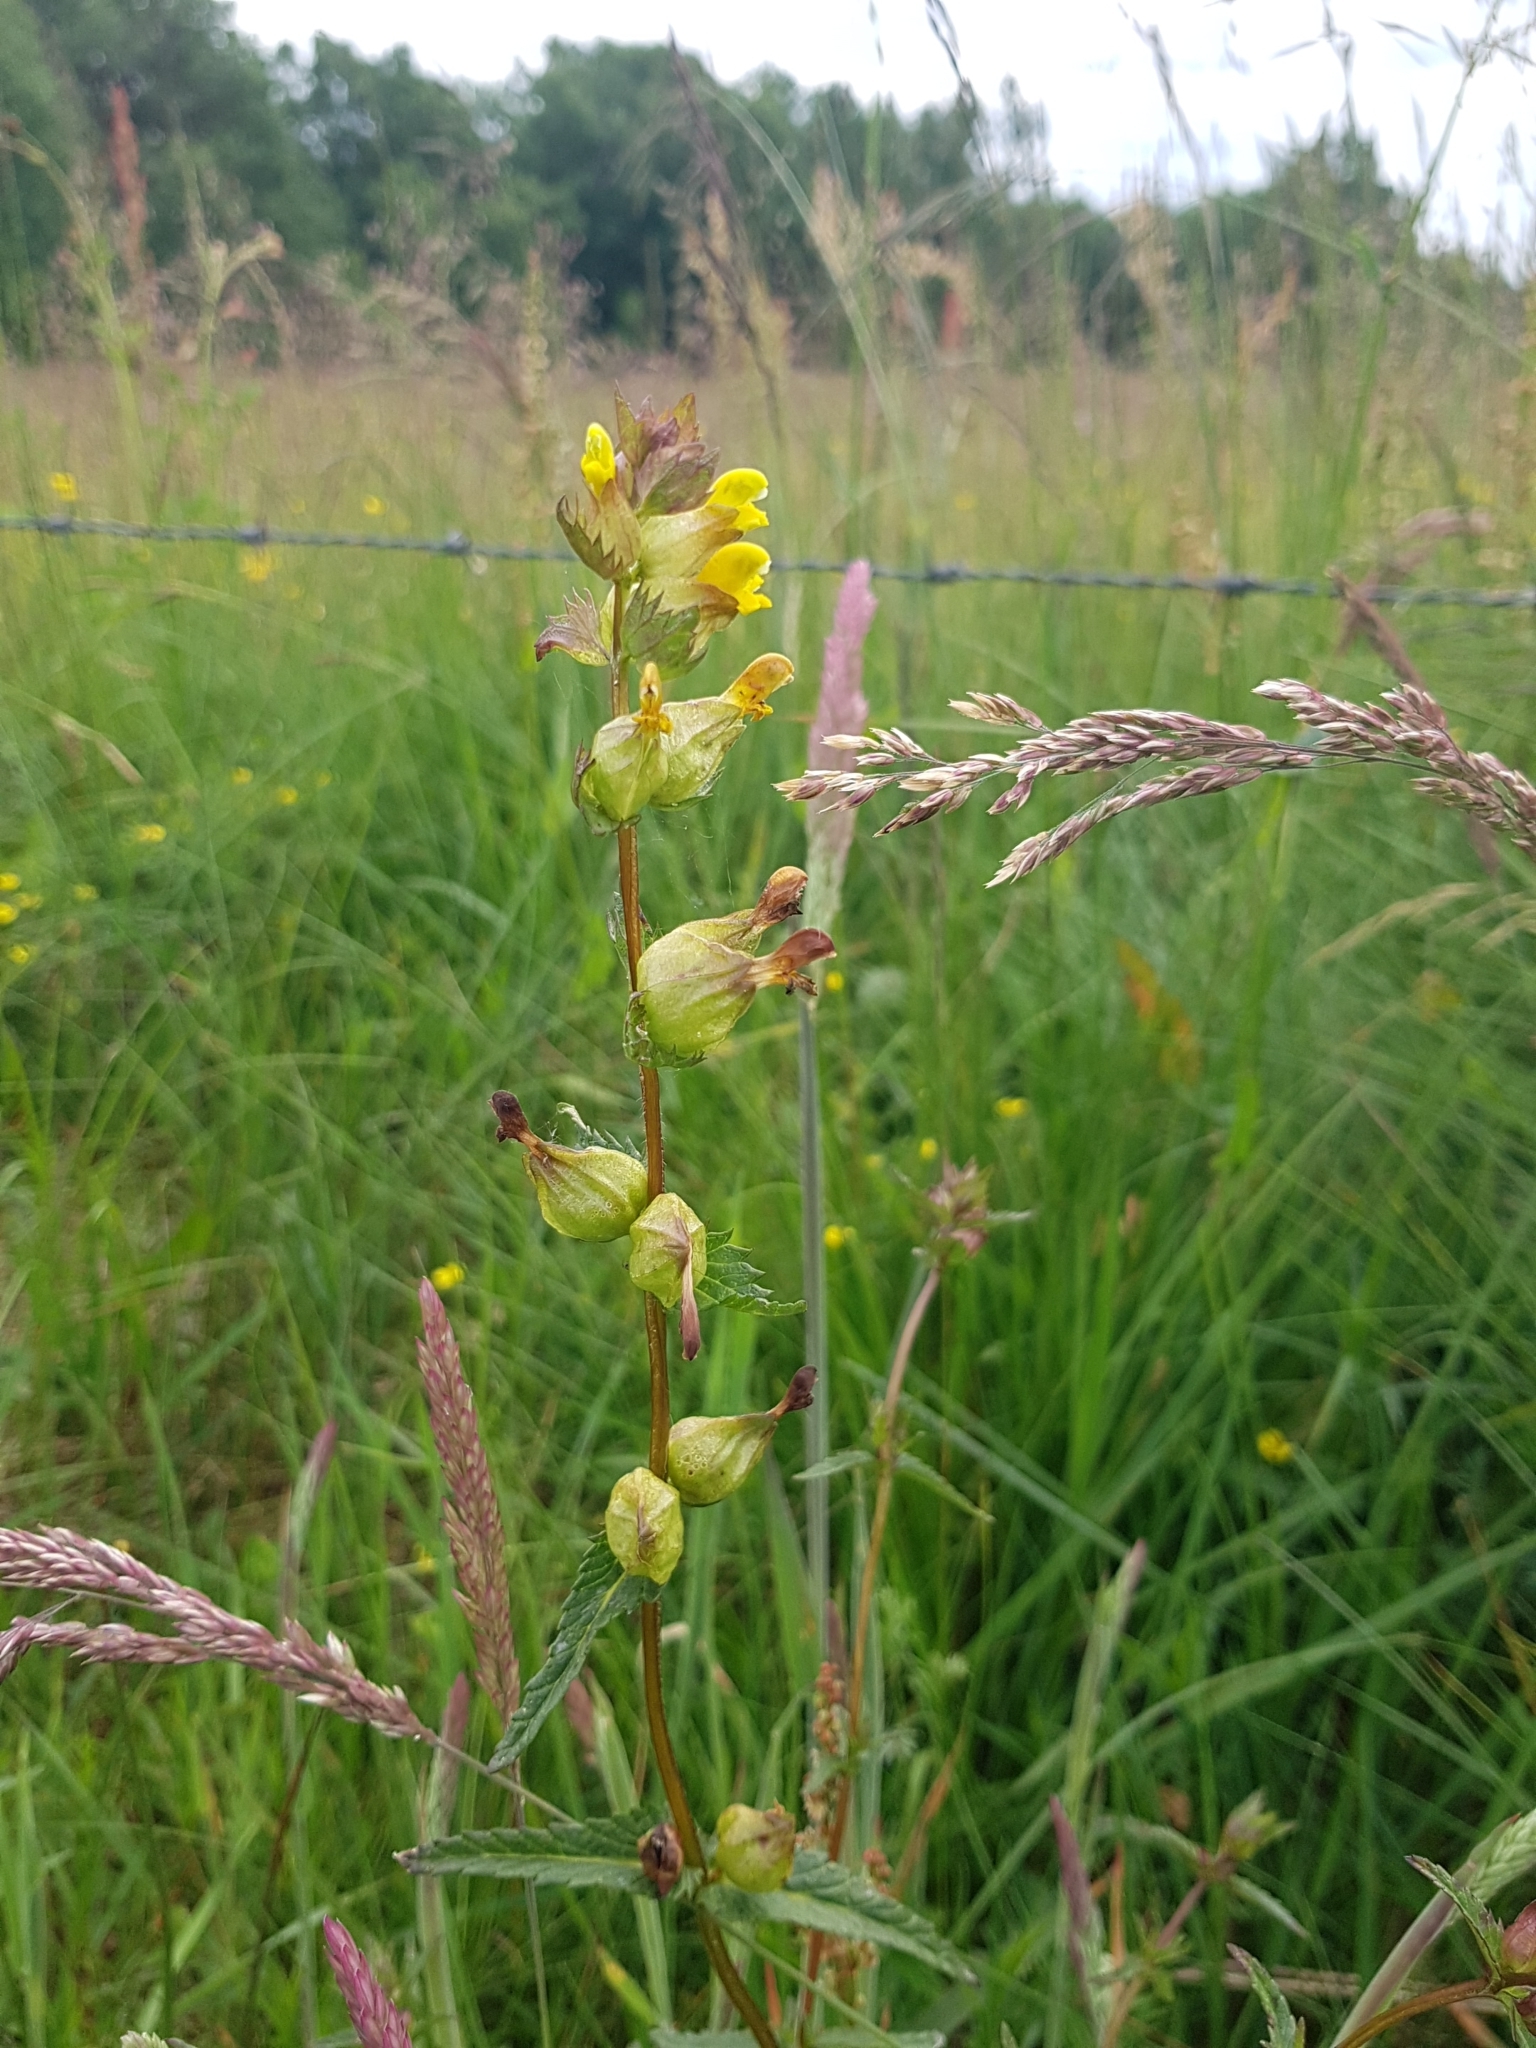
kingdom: Plantae
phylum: Tracheophyta
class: Magnoliopsida
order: Lamiales
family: Orobanchaceae
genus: Rhinanthus
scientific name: Rhinanthus minor
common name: Yellow-rattle
